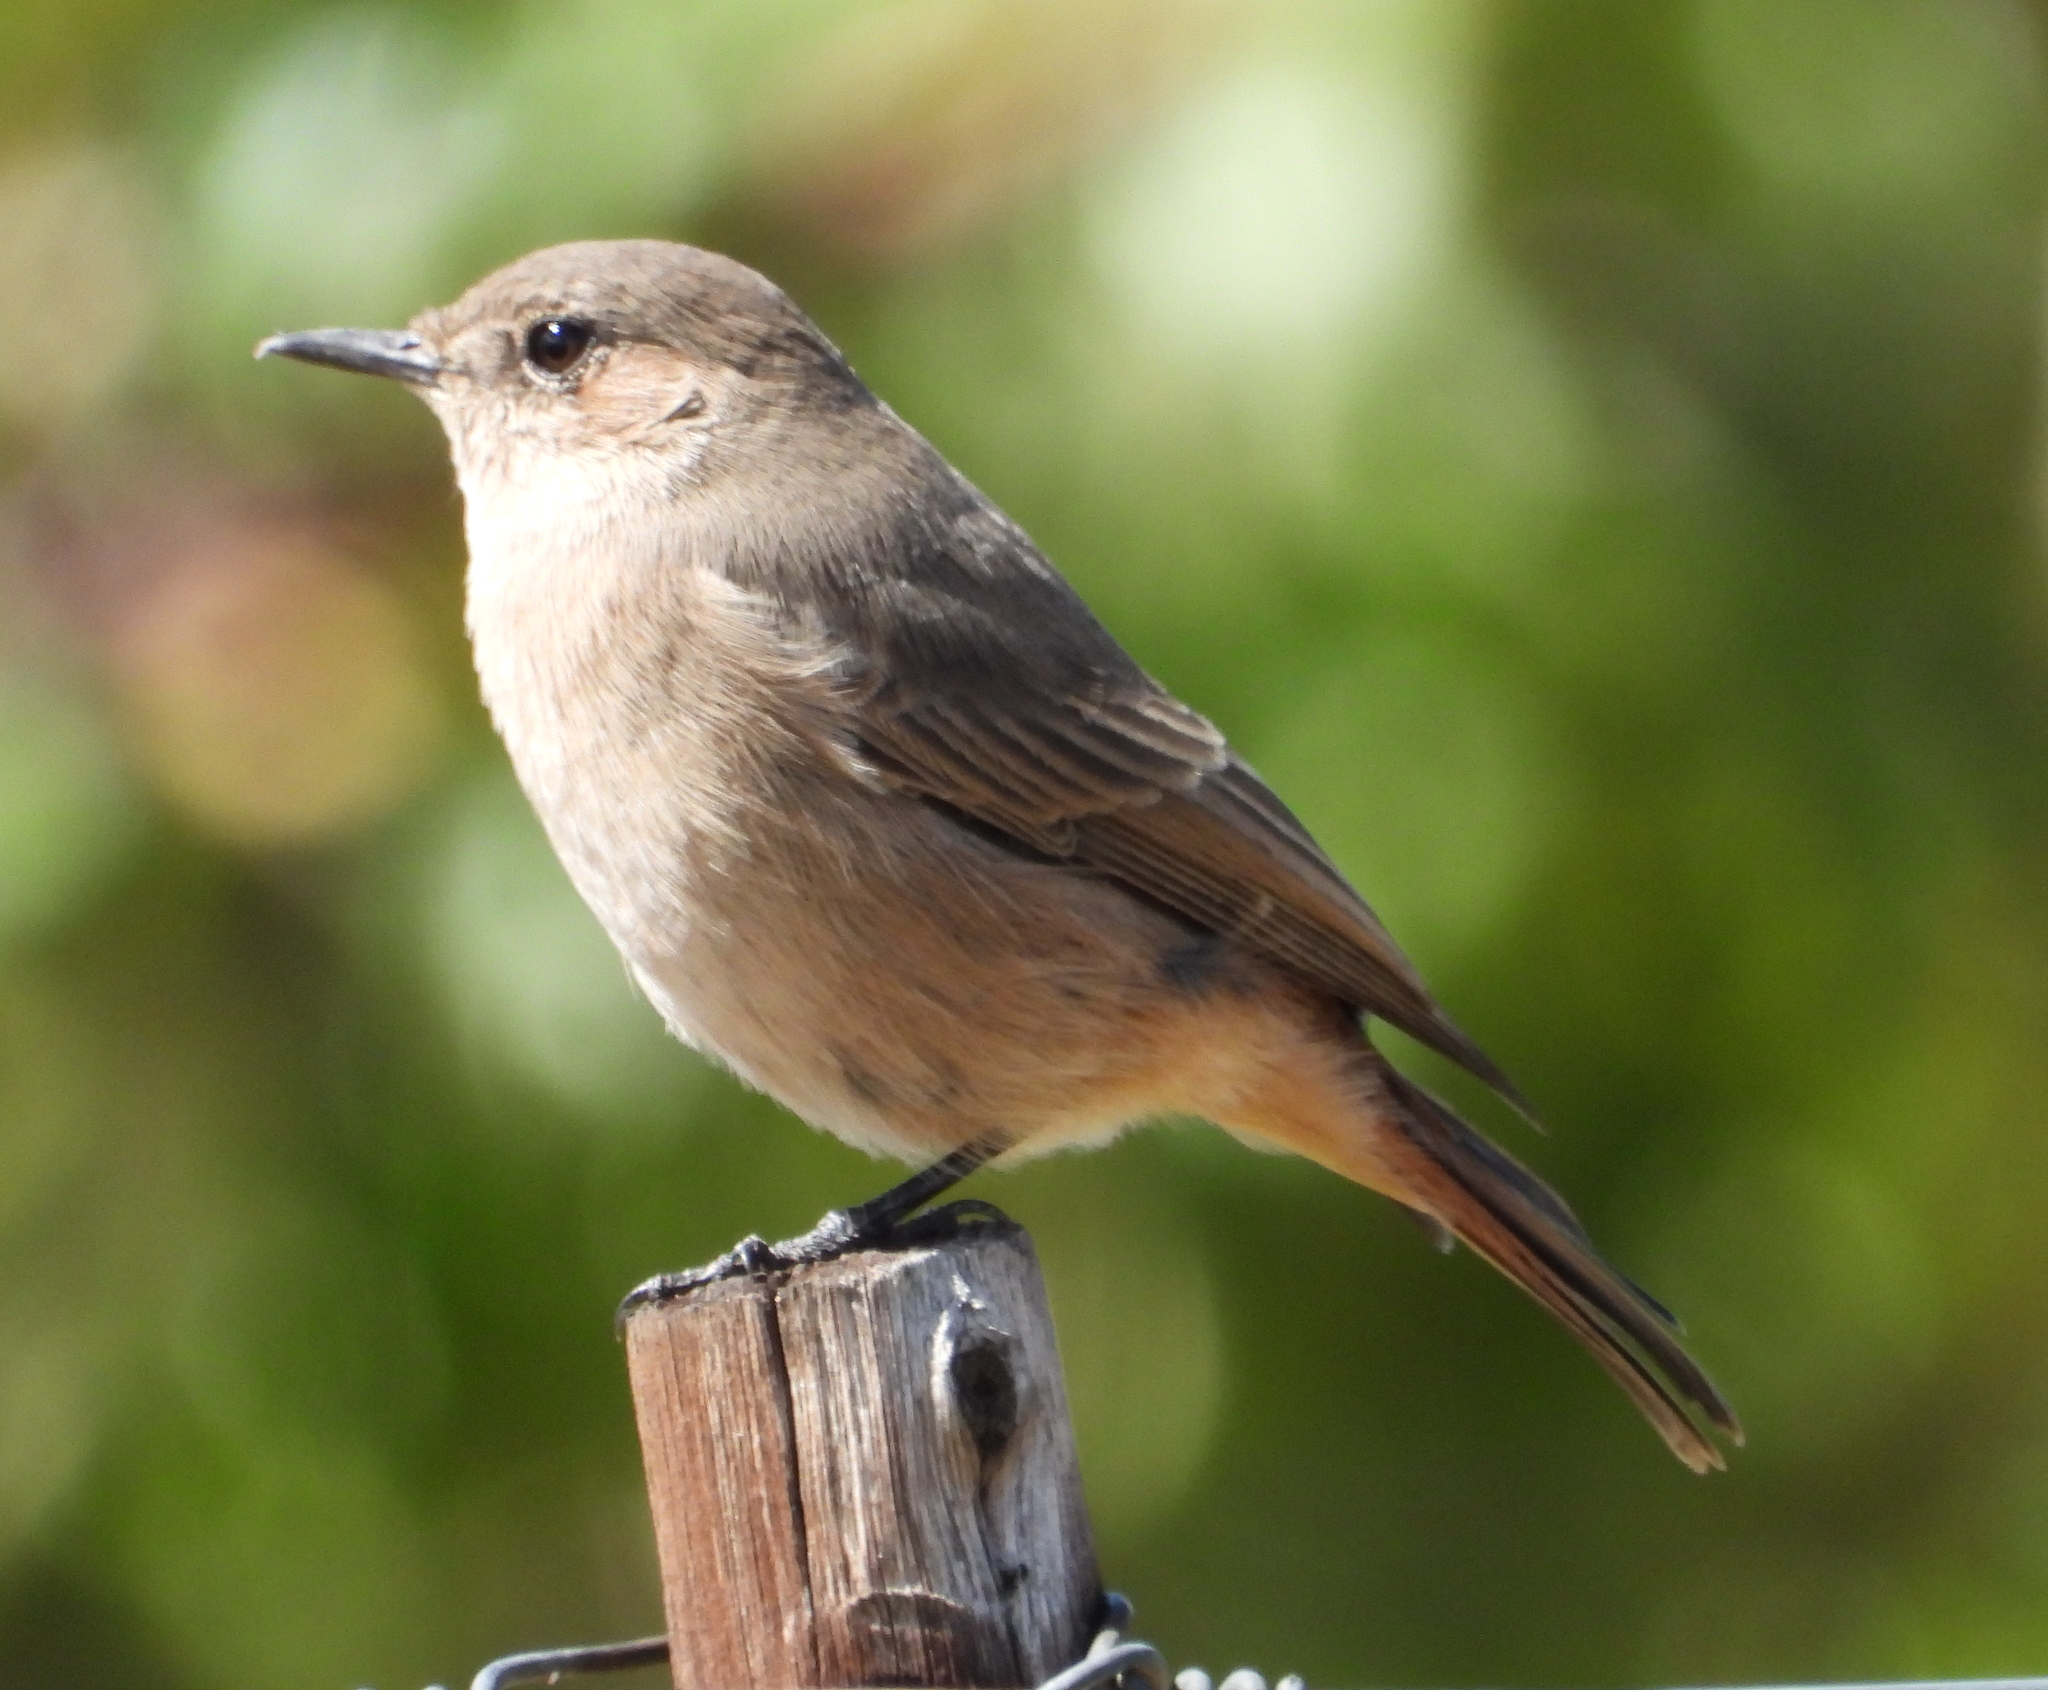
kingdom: Animalia
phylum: Chordata
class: Aves
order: Passeriformes
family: Muscicapidae
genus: Oenanthe
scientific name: Oenanthe familiaris
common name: Familiar chat
